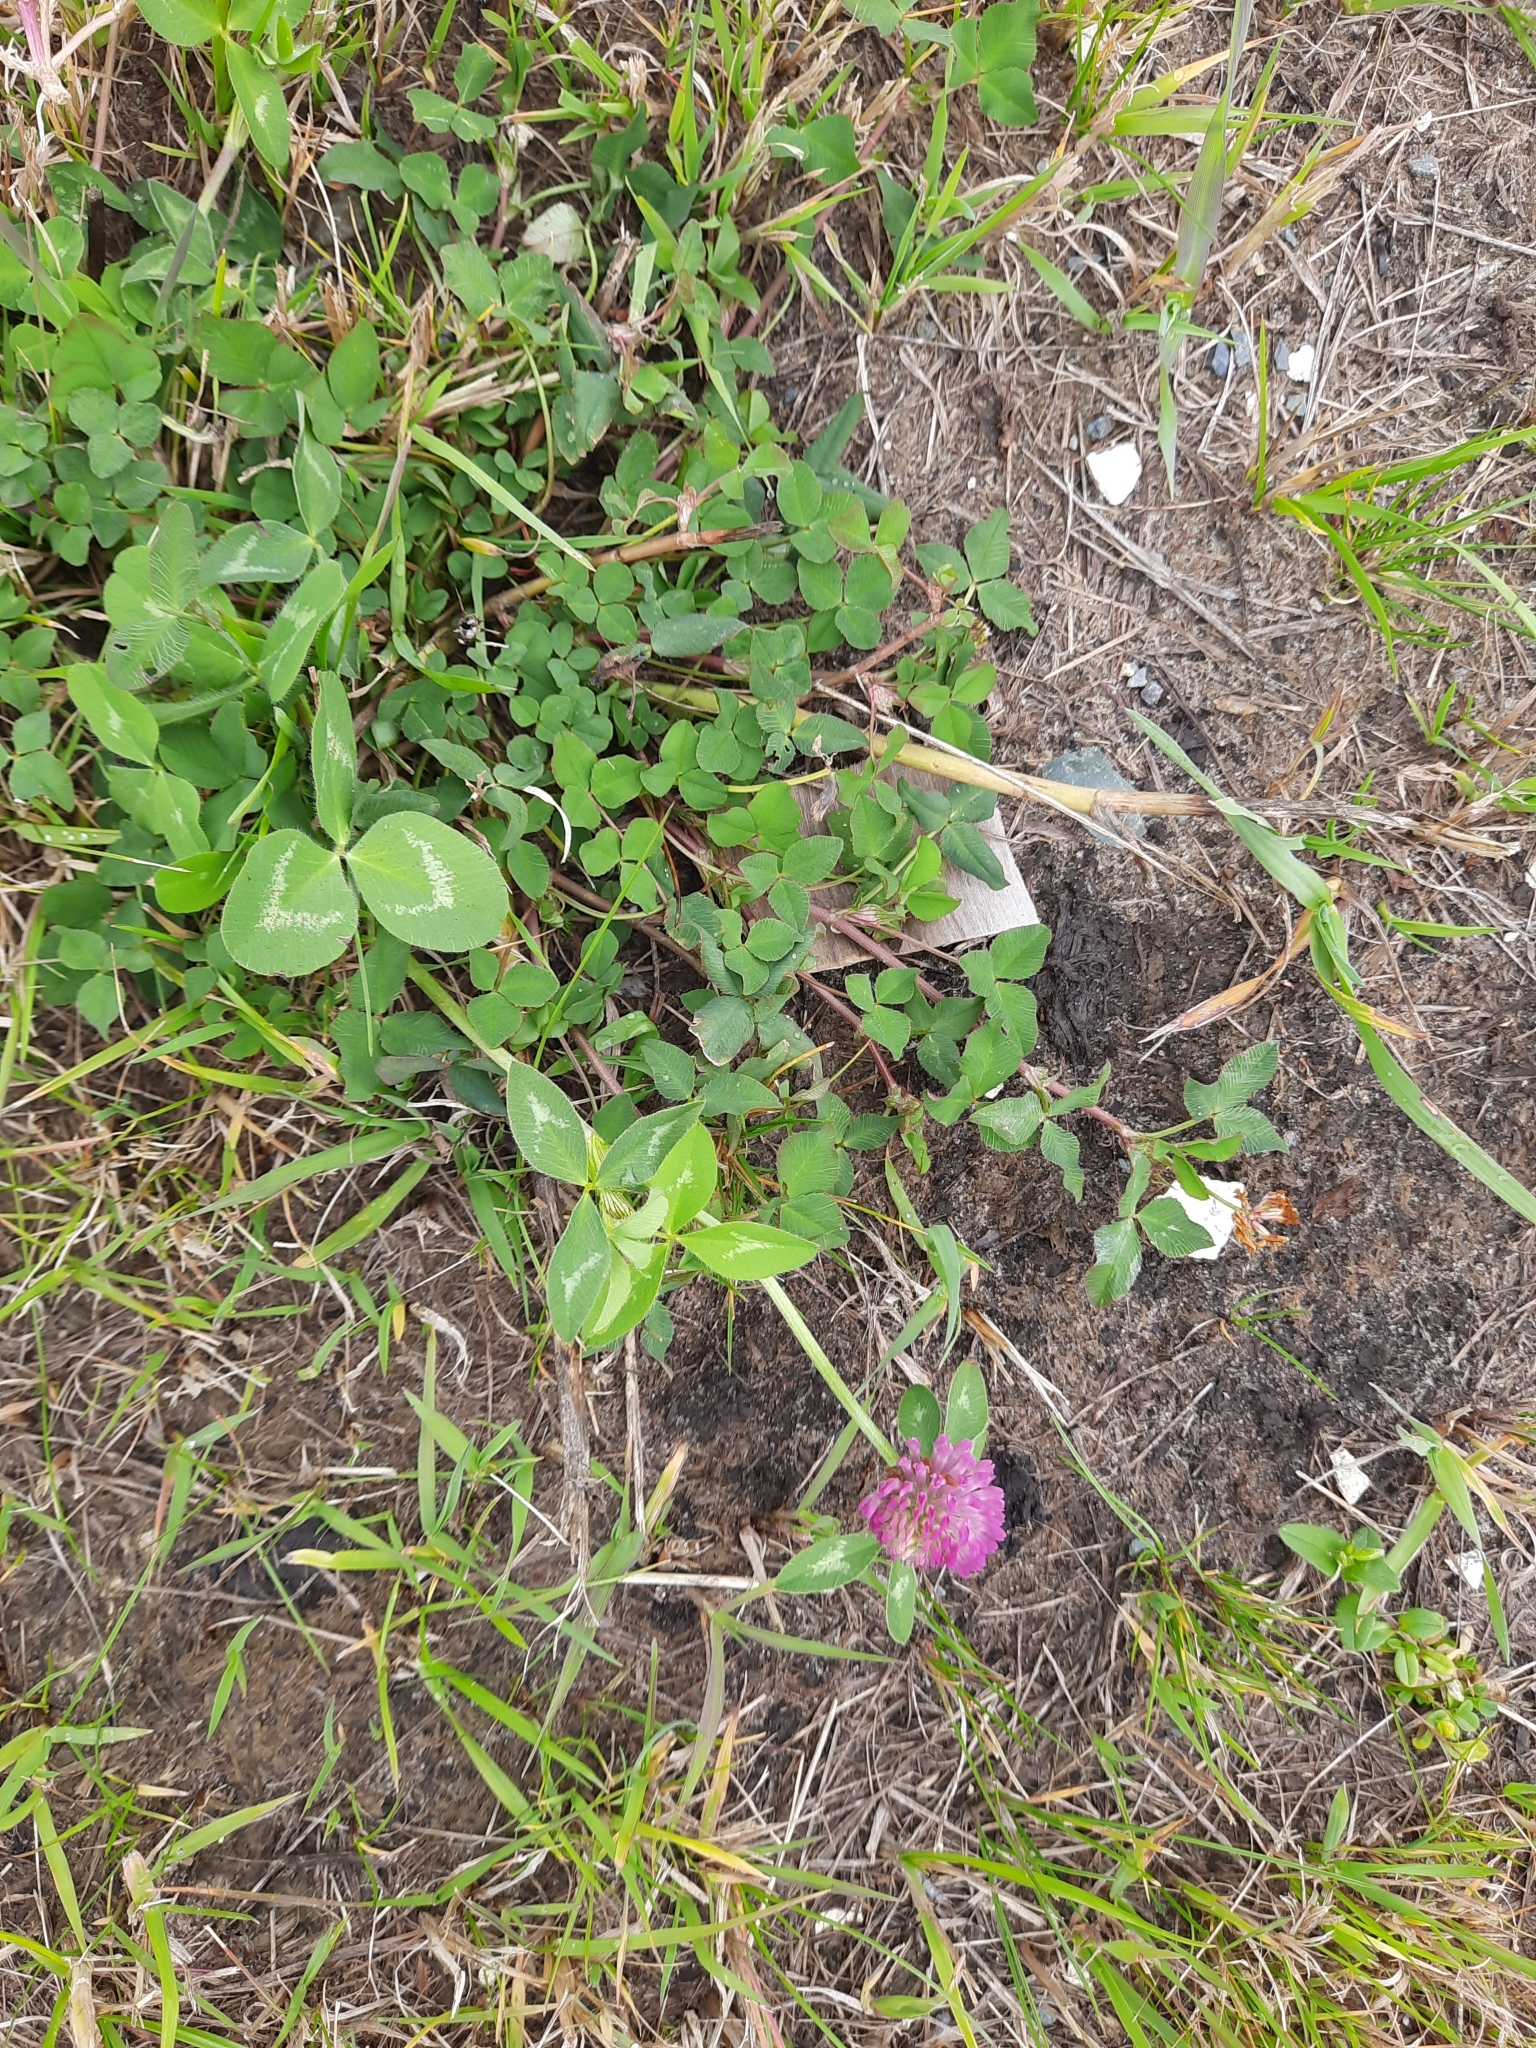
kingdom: Plantae
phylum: Tracheophyta
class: Magnoliopsida
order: Fabales
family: Fabaceae
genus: Trifolium
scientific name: Trifolium pratense
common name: Red clover
